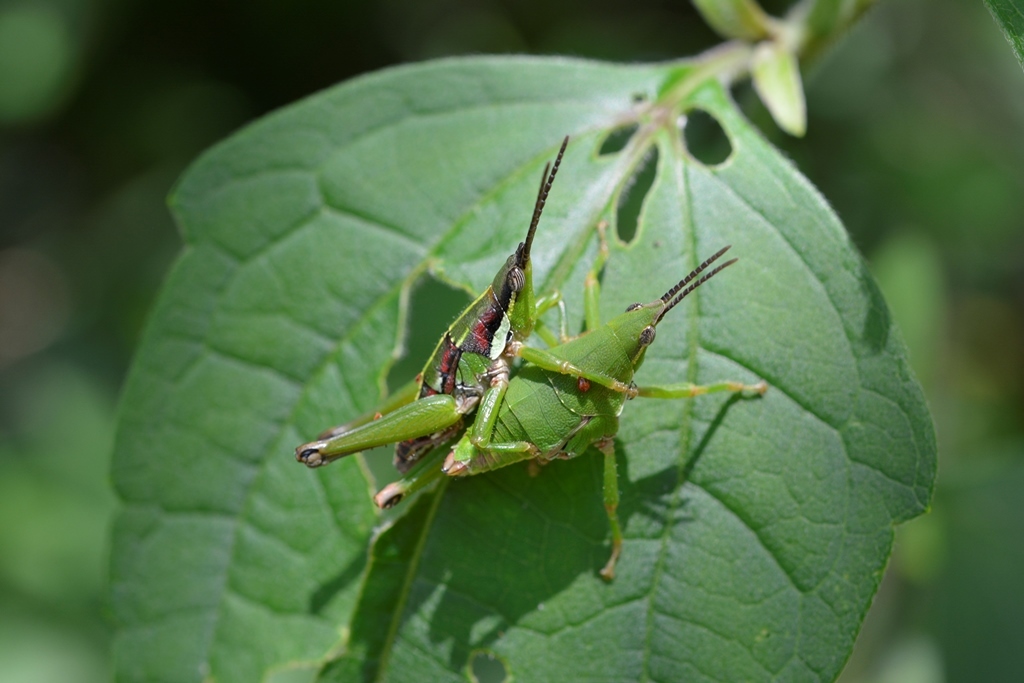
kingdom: Animalia
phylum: Arthropoda
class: Insecta
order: Orthoptera
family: Pyrgomorphidae
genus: Sphenarium
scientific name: Sphenarium histrio
